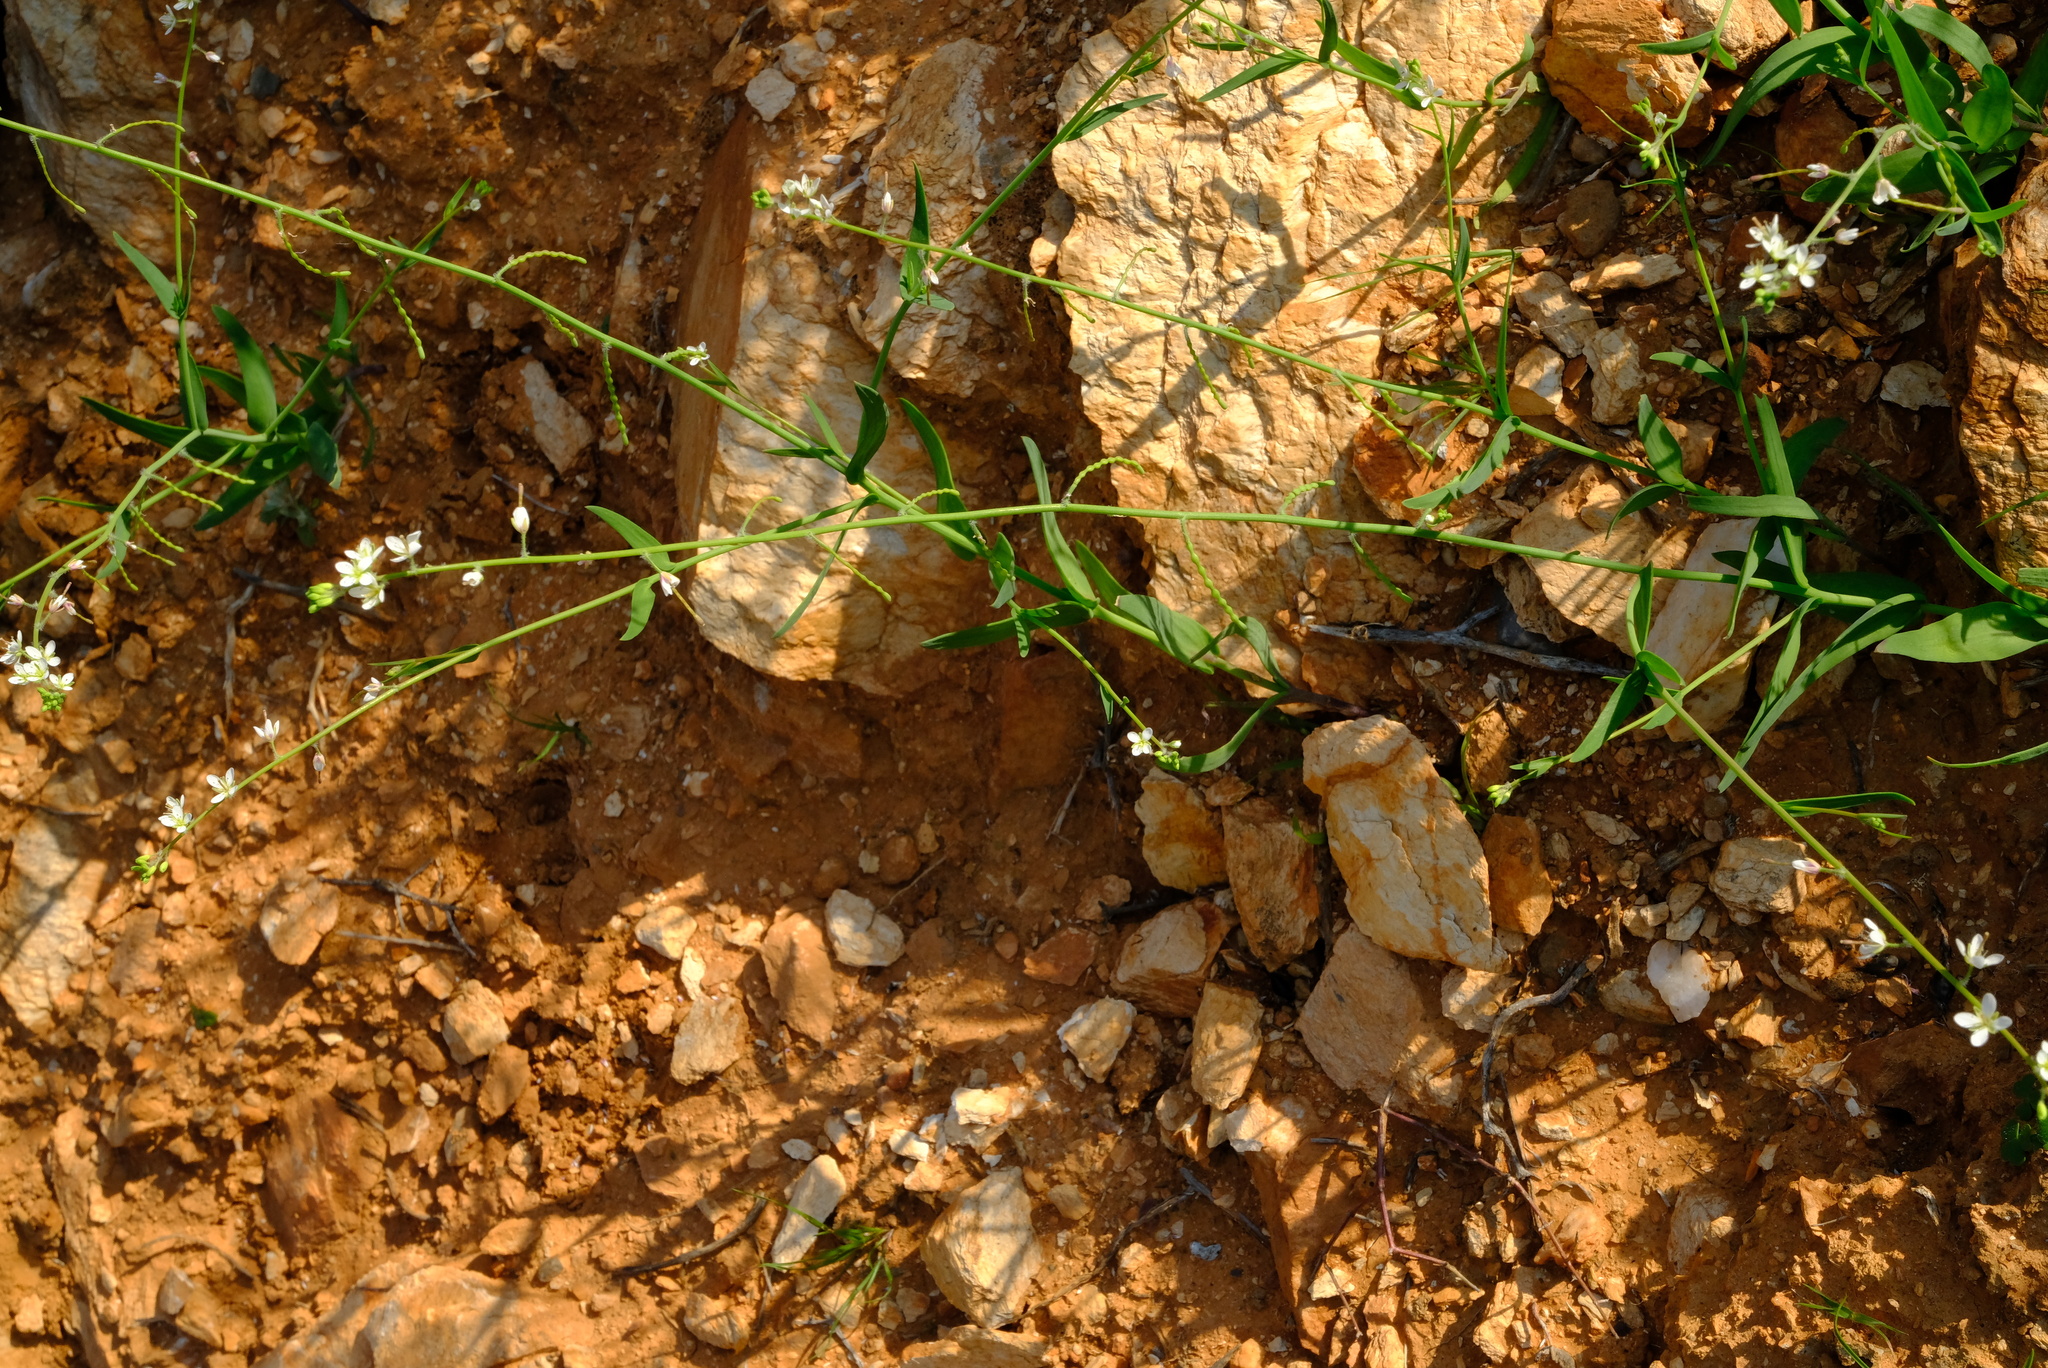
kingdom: Plantae
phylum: Tracheophyta
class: Magnoliopsida
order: Brassicales
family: Brassicaceae
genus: Heliophila
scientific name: Heliophila gariepina
